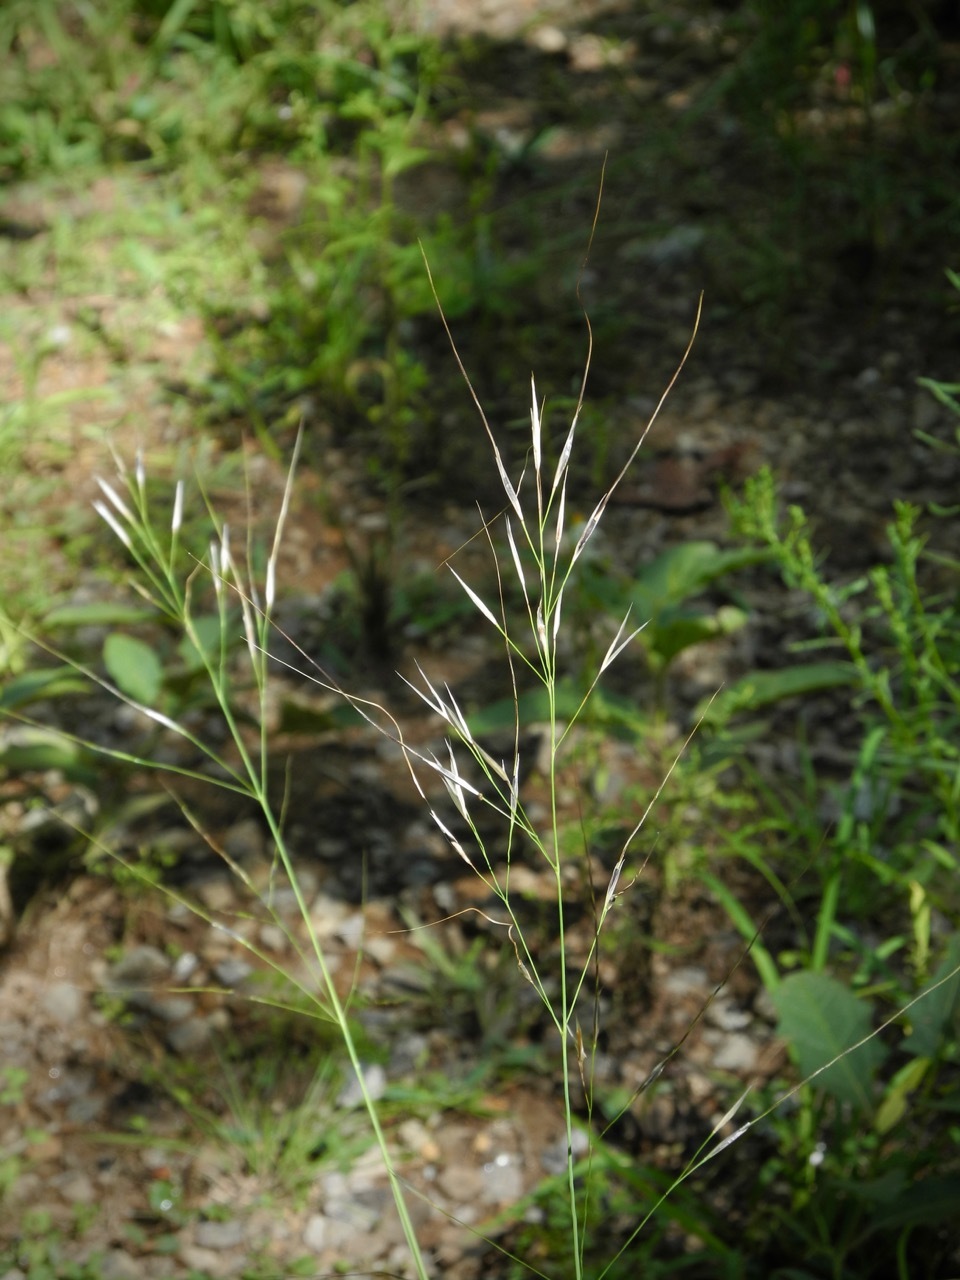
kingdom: Plantae
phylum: Tracheophyta
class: Liliopsida
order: Poales
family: Poaceae
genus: Hesperostipa
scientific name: Hesperostipa spartea
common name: Porcupine grass
